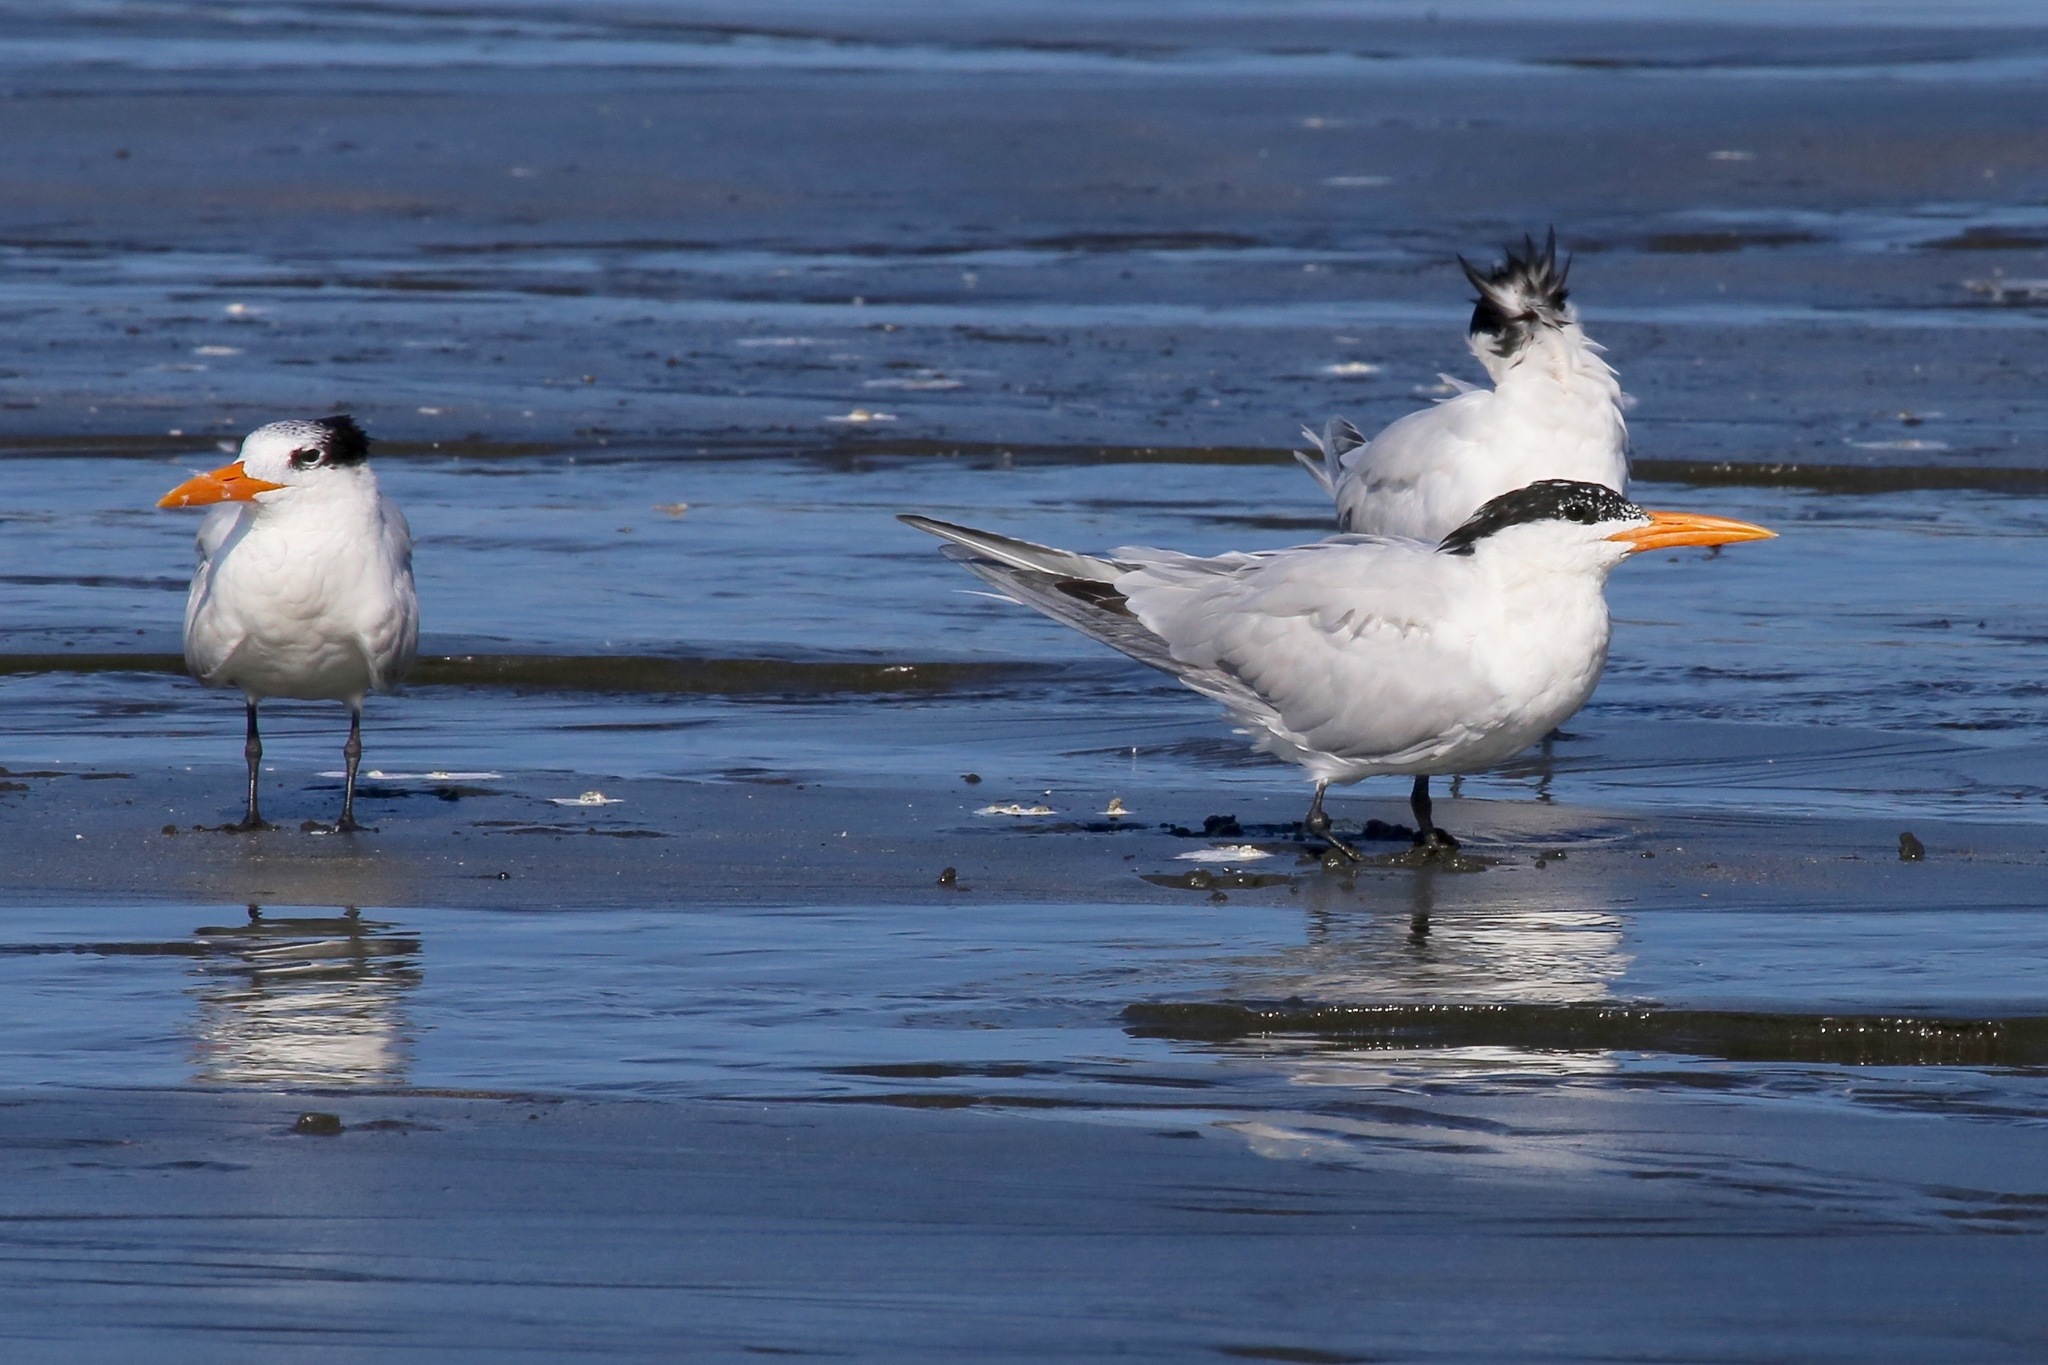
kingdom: Animalia
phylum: Chordata
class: Aves
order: Charadriiformes
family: Laridae
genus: Thalasseus
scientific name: Thalasseus maximus
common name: Royal tern
